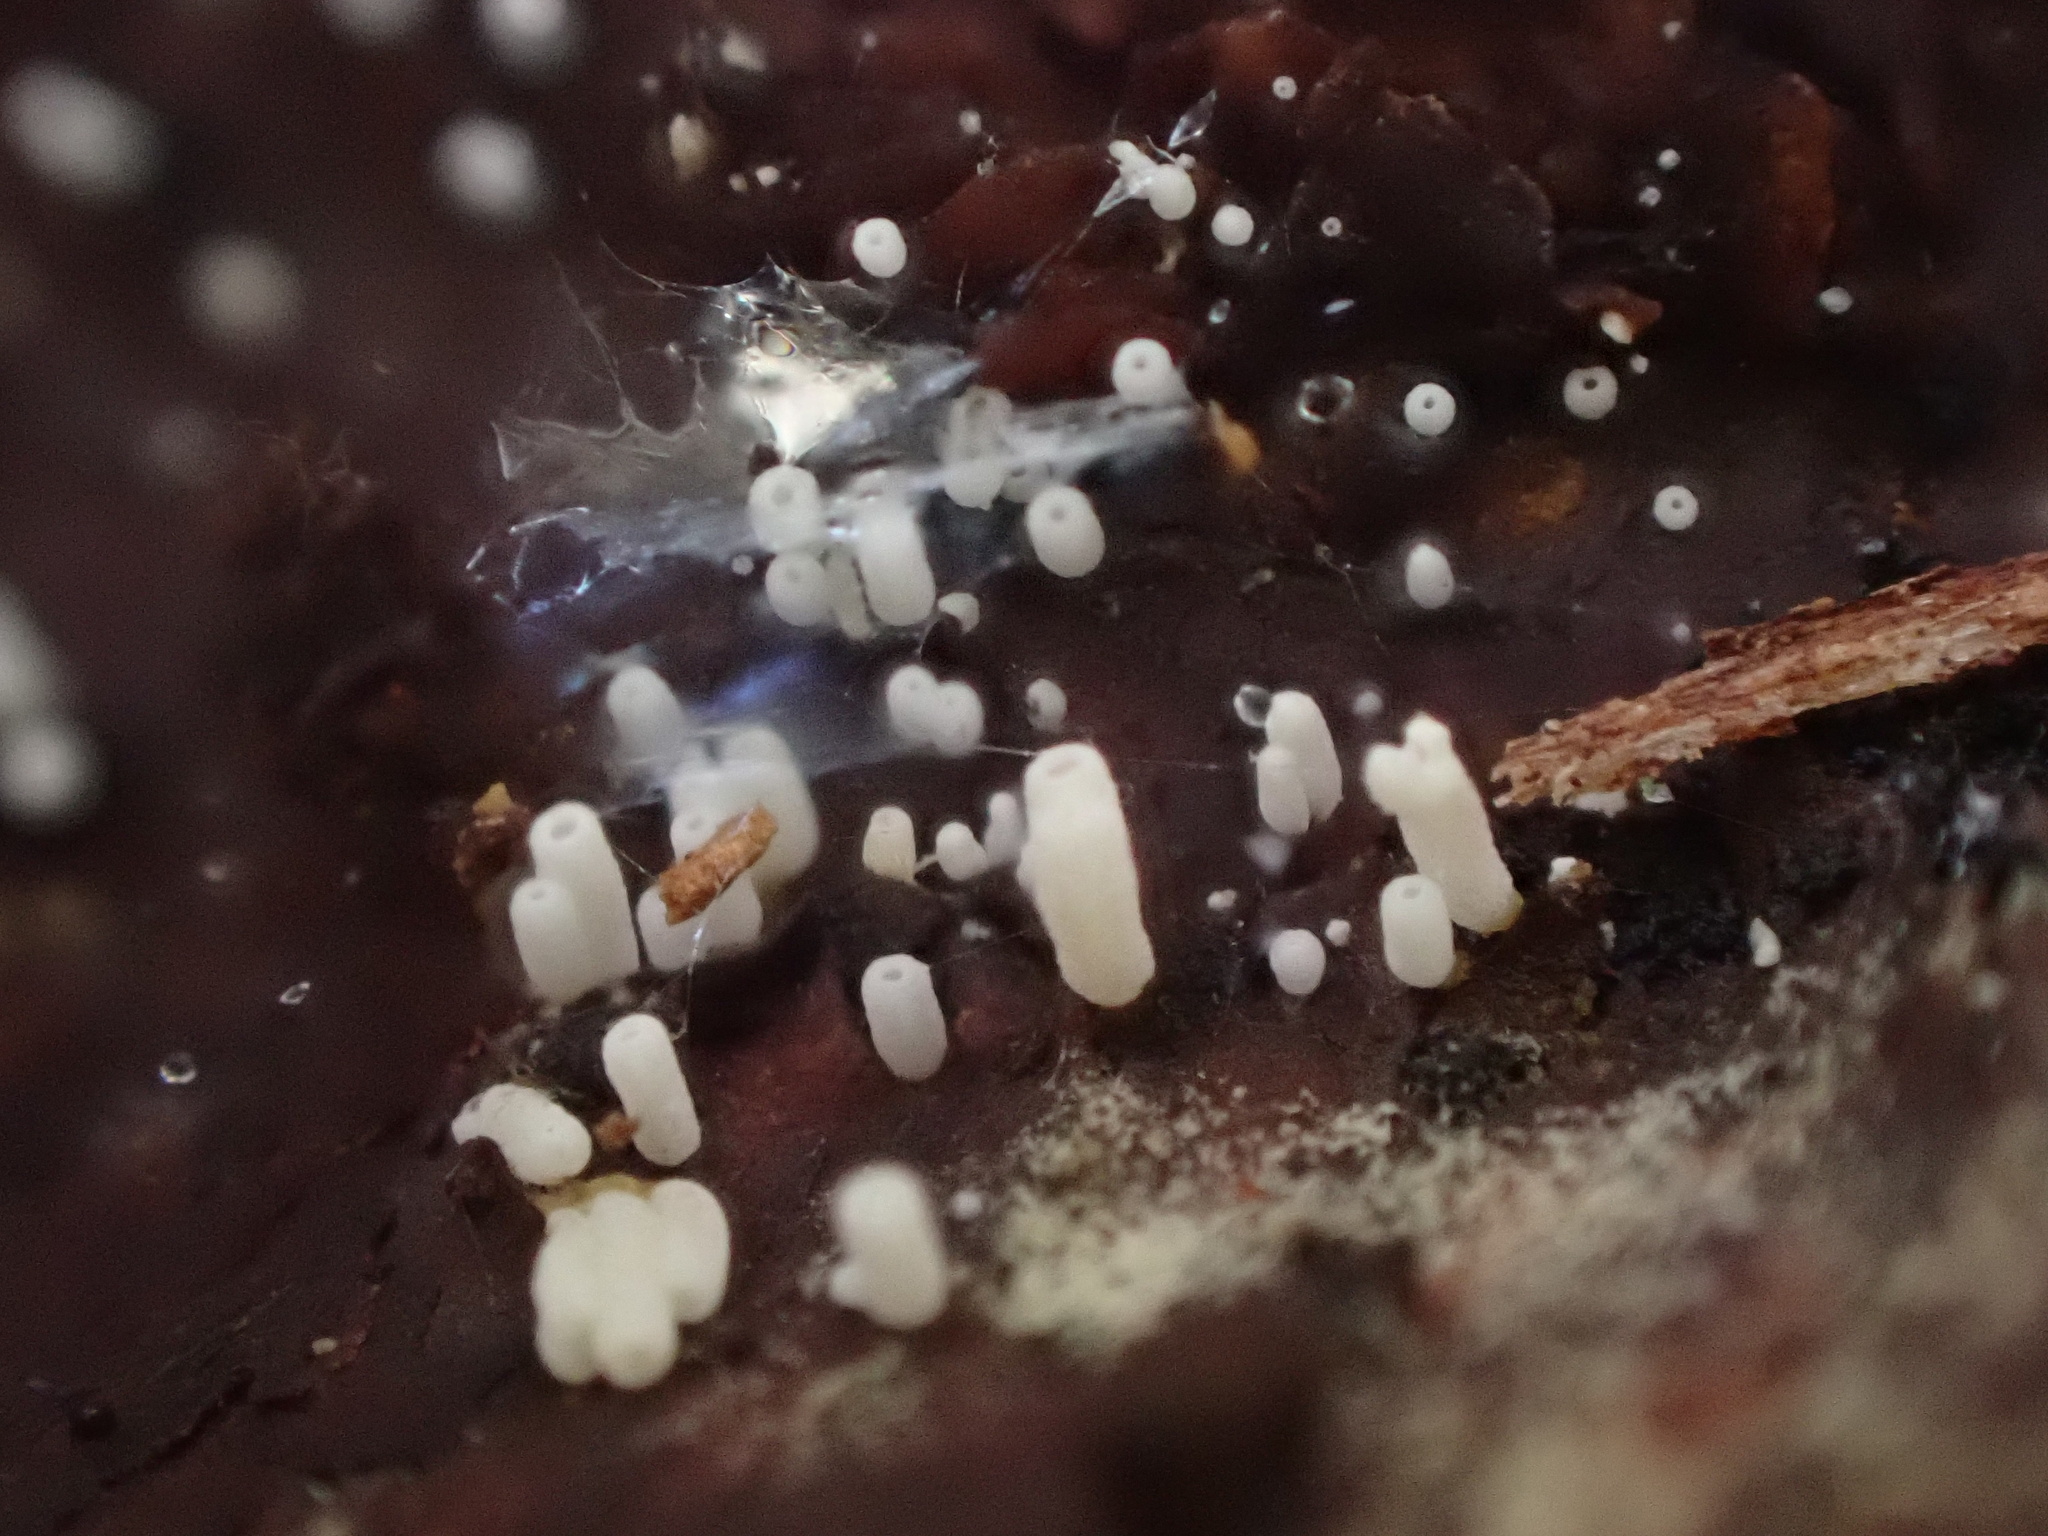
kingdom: Fungi
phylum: Basidiomycota
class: Agaricomycetes
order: Agaricales
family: Marasmiaceae
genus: Henningsomyces
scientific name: Henningsomyces candidus
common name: White tubelet
